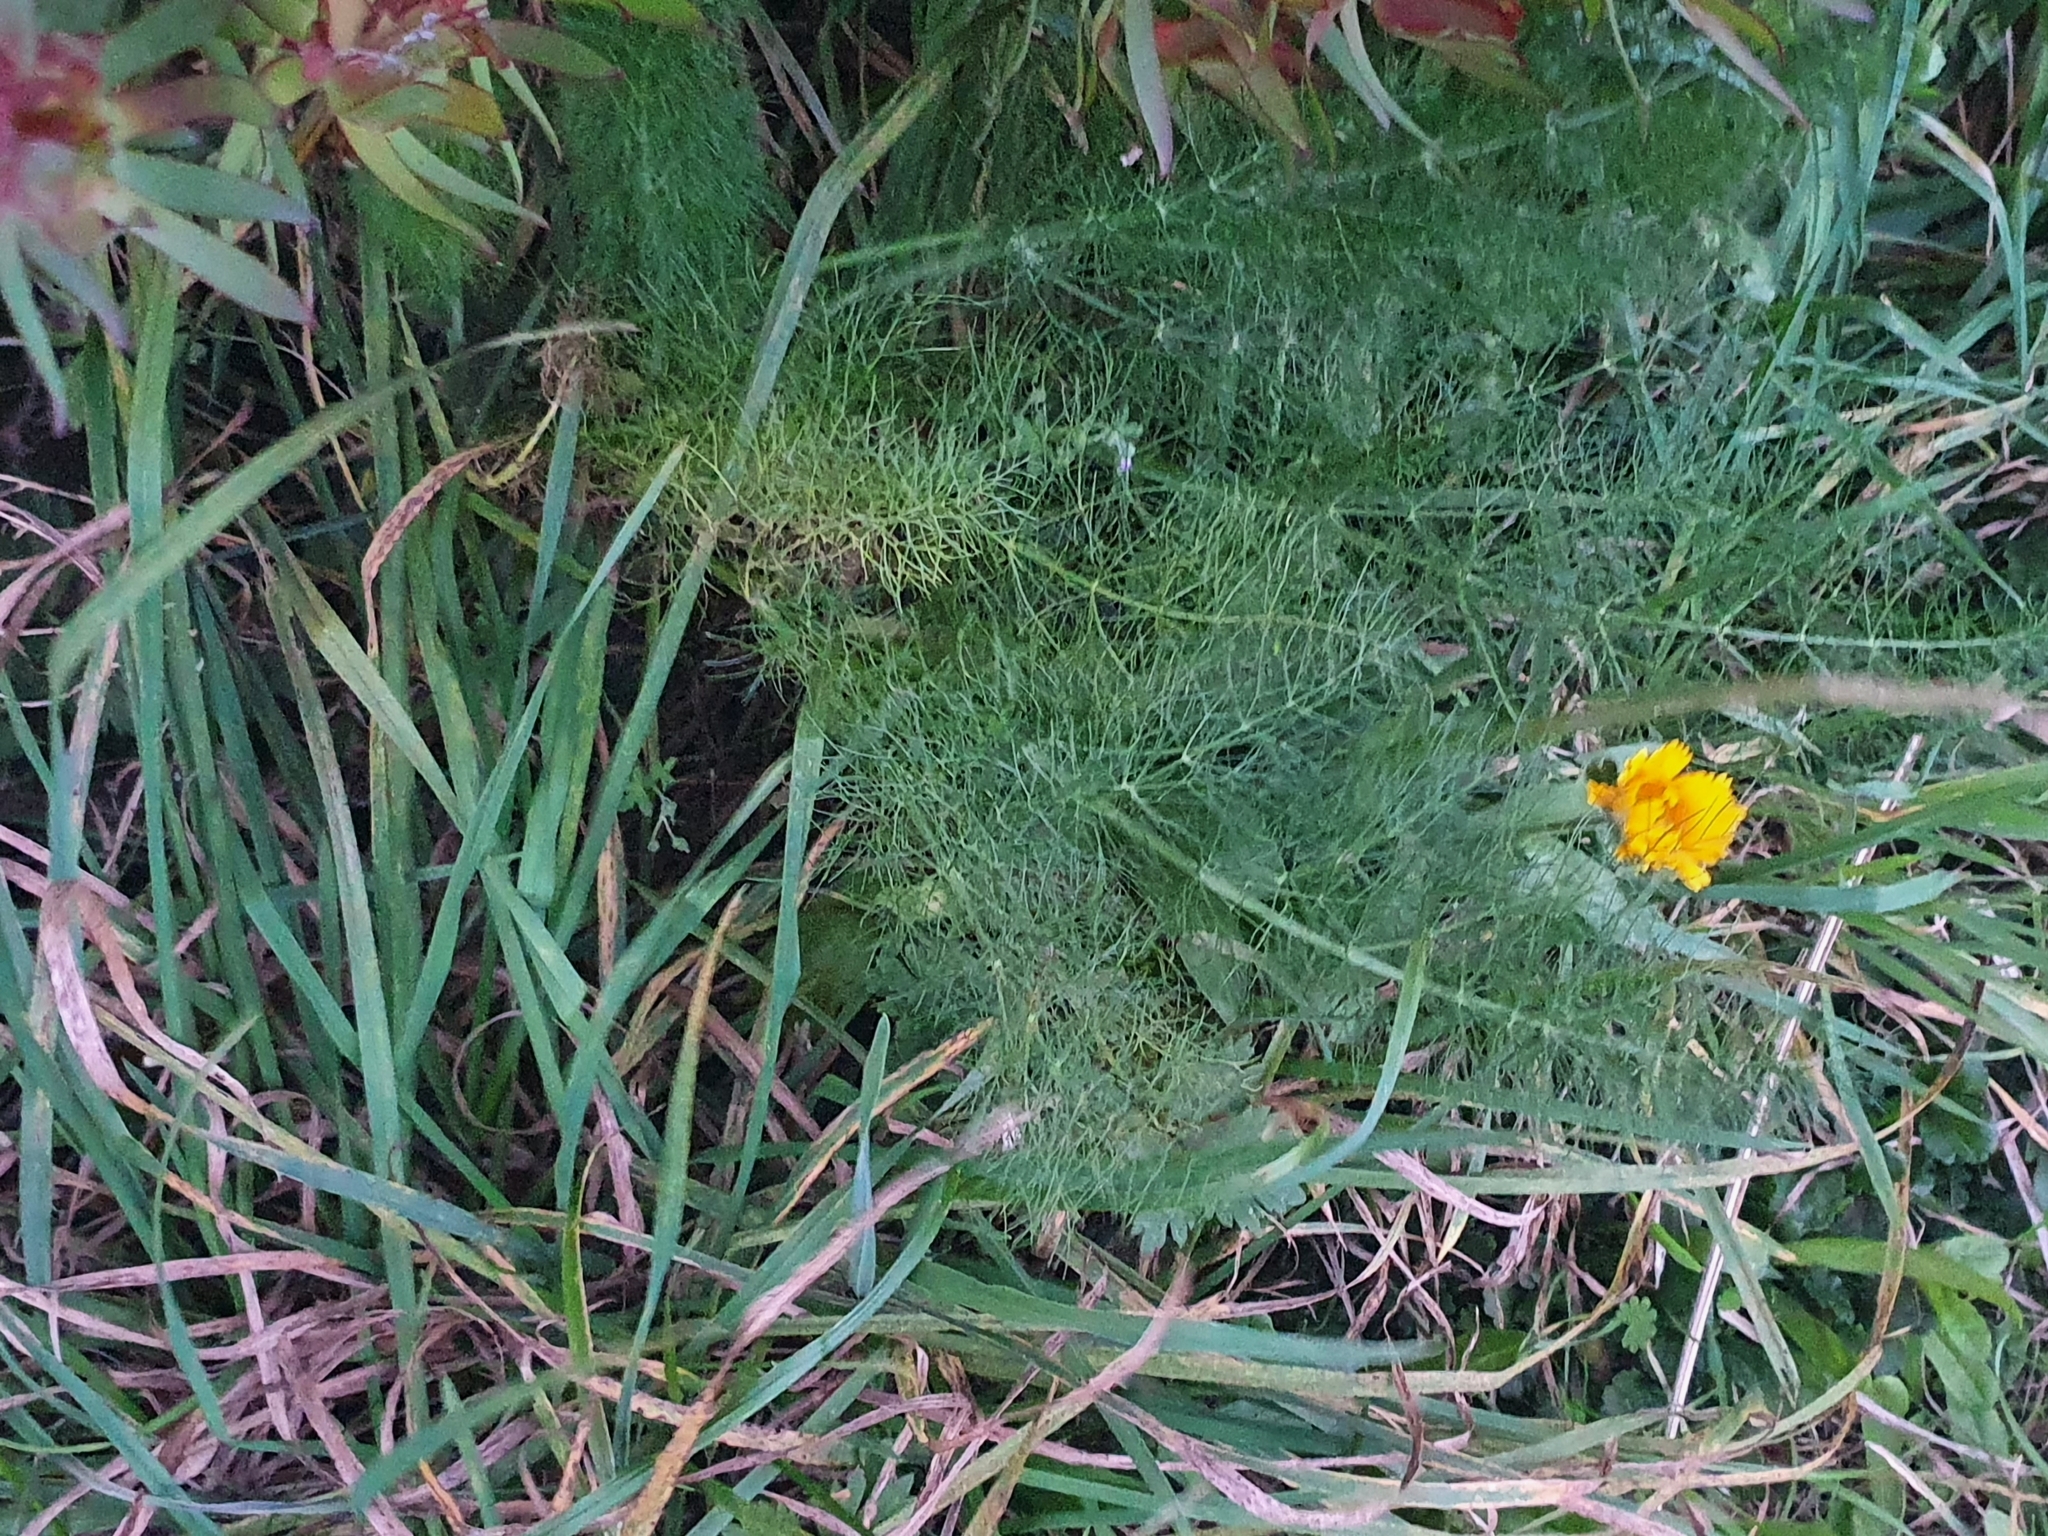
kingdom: Plantae
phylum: Tracheophyta
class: Magnoliopsida
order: Apiales
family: Apiaceae
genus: Foeniculum
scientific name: Foeniculum vulgare
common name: Fennel
